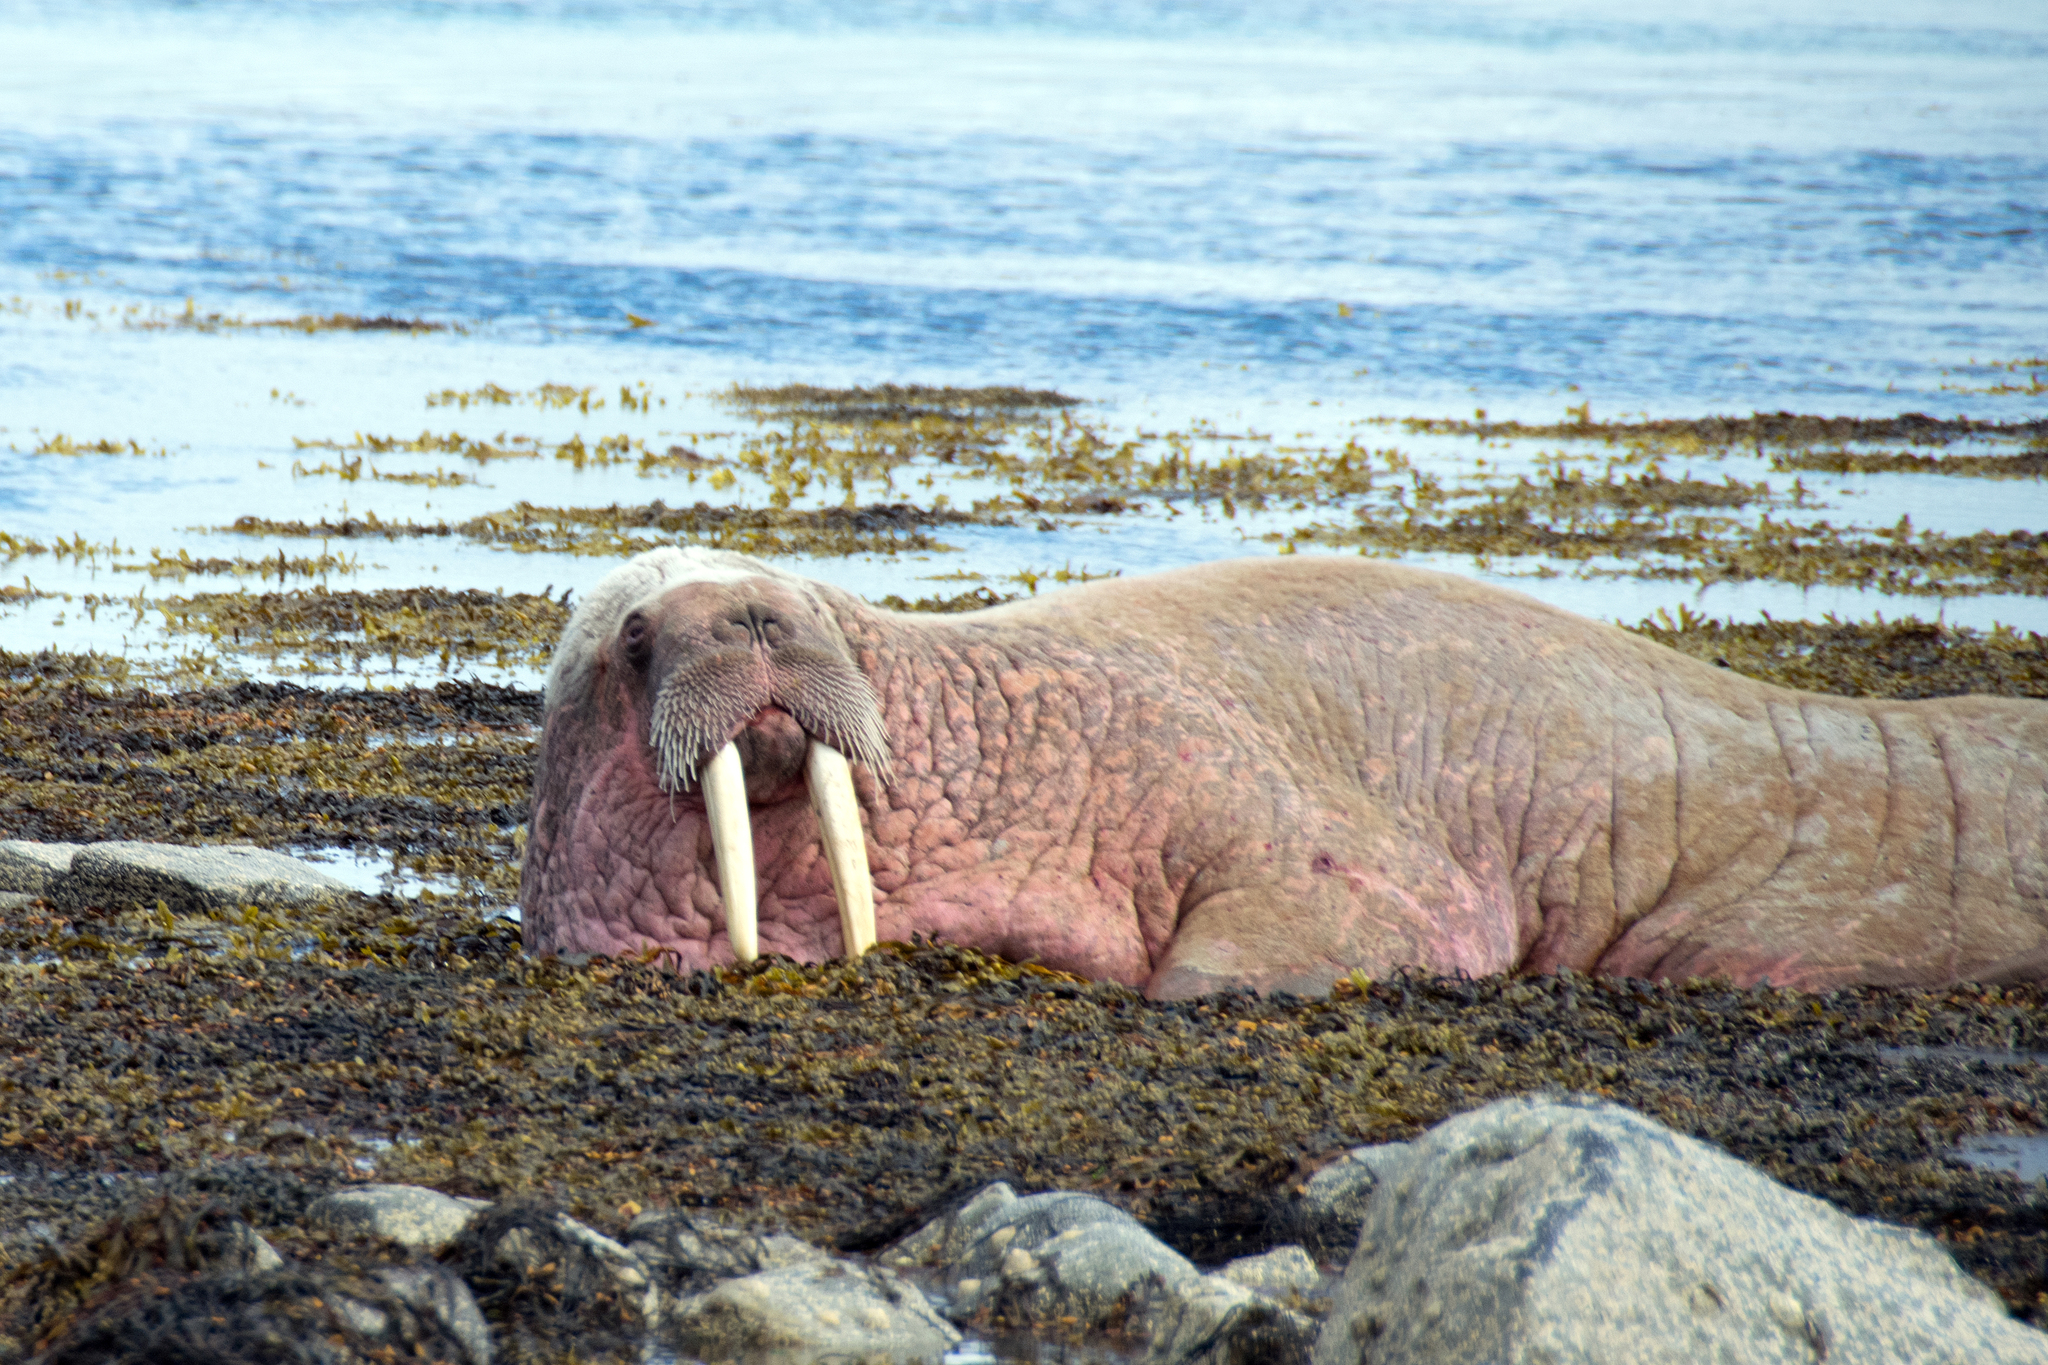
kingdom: Animalia
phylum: Chordata
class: Mammalia
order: Carnivora
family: Odobenidae
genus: Odobenus
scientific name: Odobenus rosmarus
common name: Walrus
